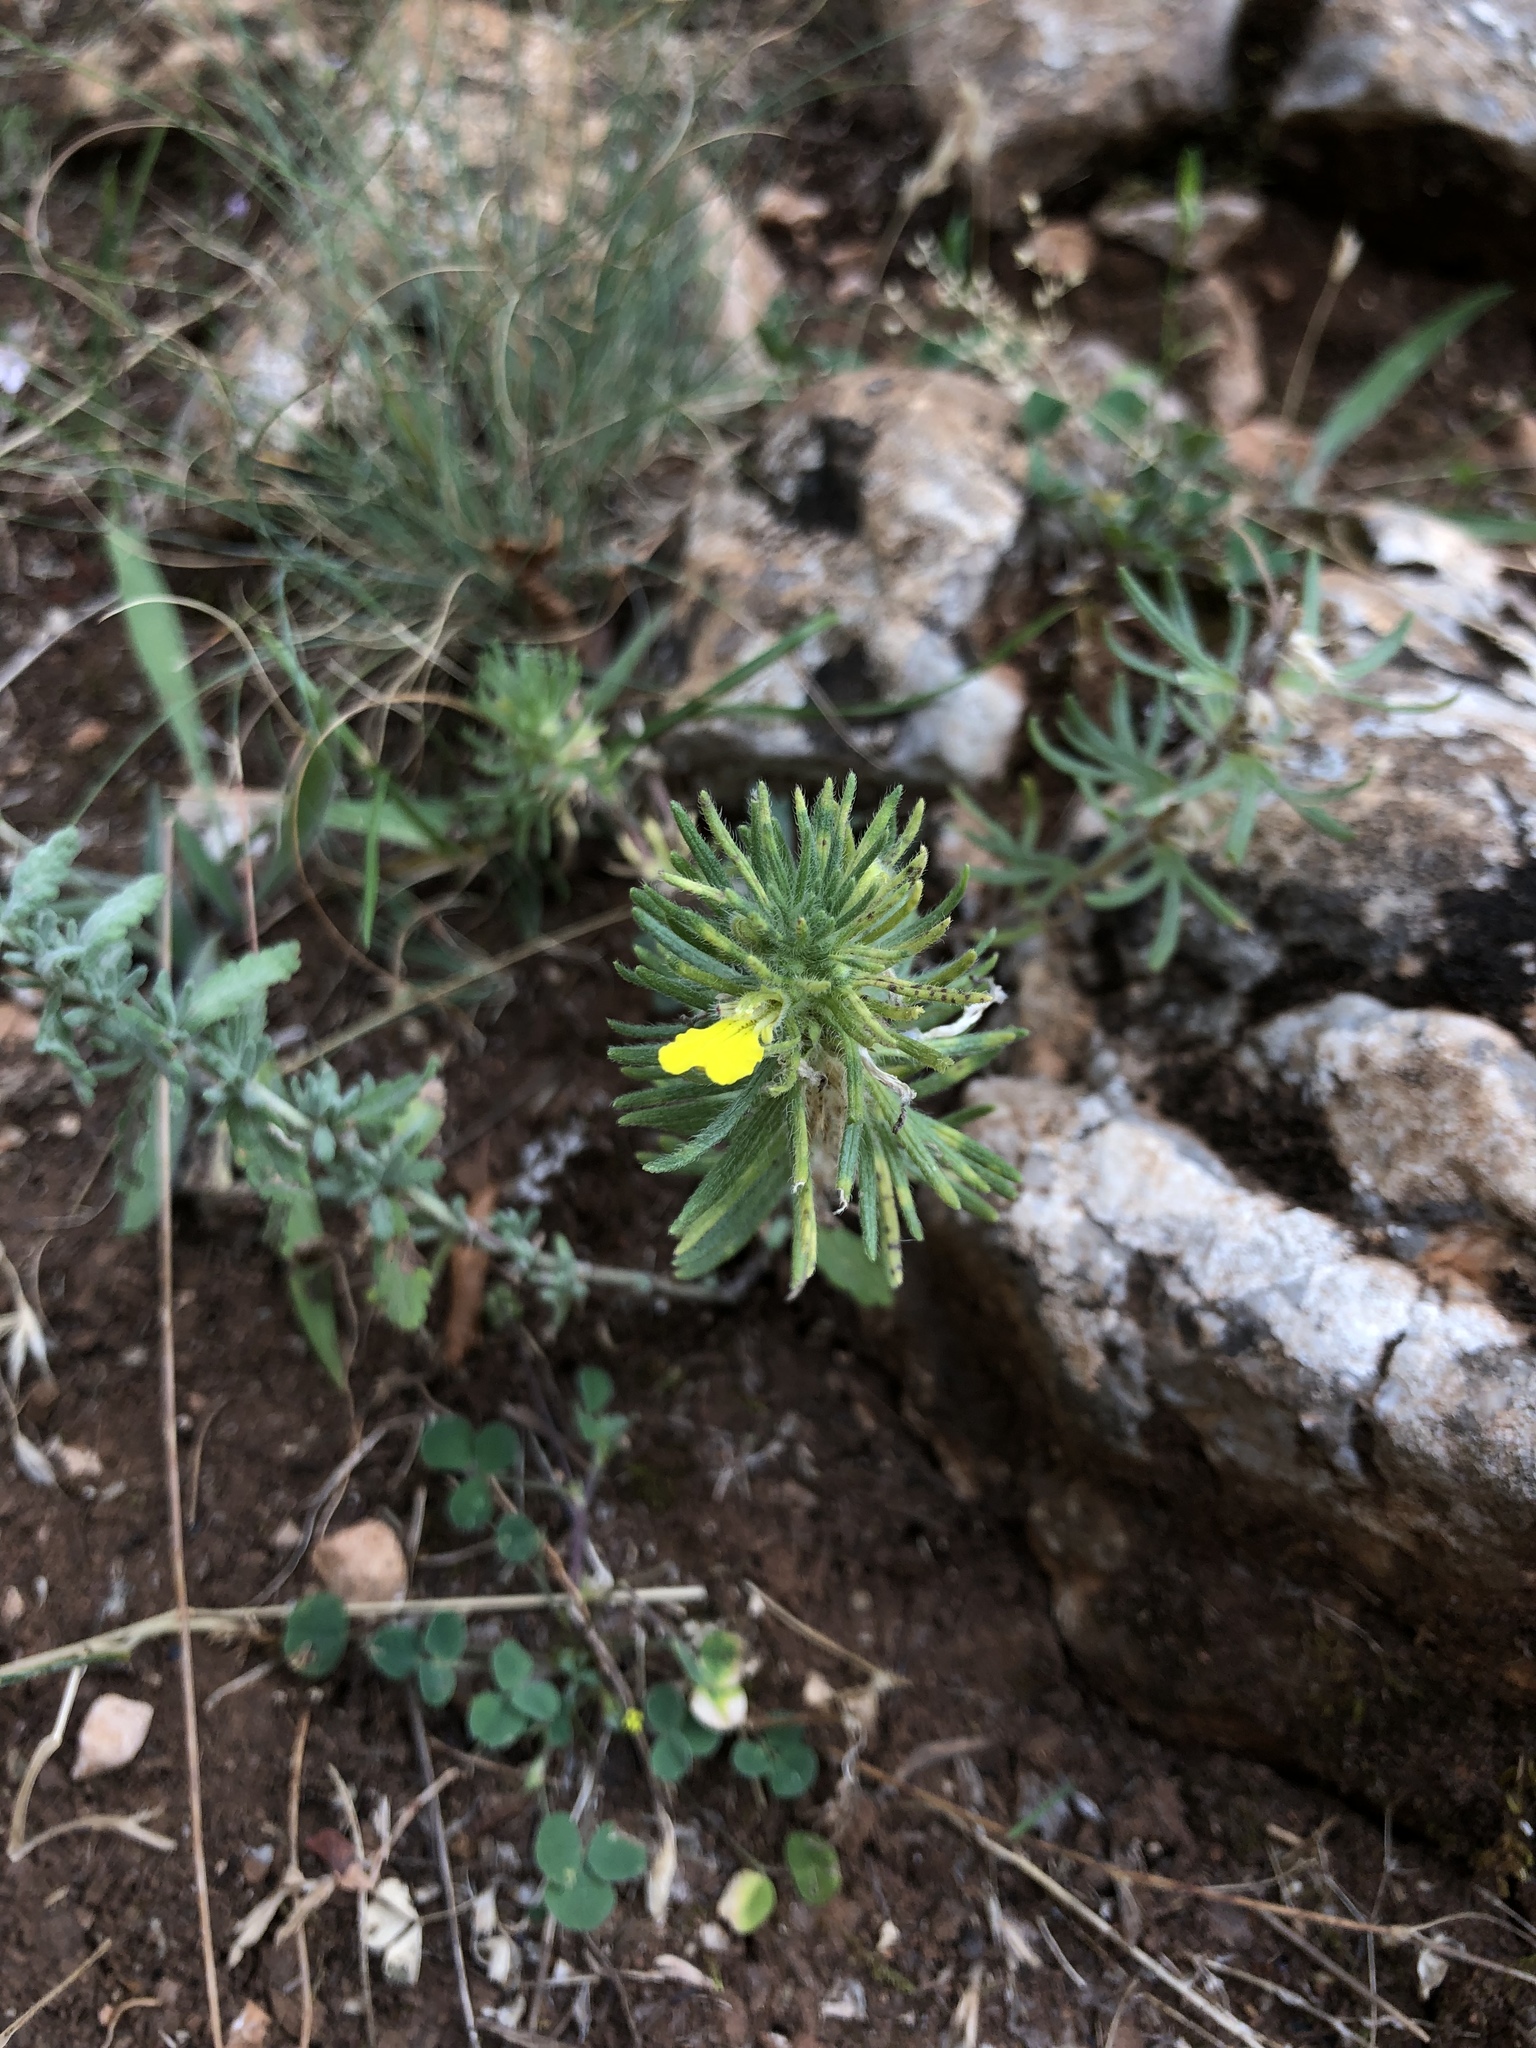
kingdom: Plantae
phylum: Tracheophyta
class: Magnoliopsida
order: Lamiales
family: Lamiaceae
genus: Ajuga
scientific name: Ajuga chamaepitys
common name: Ground-pine
